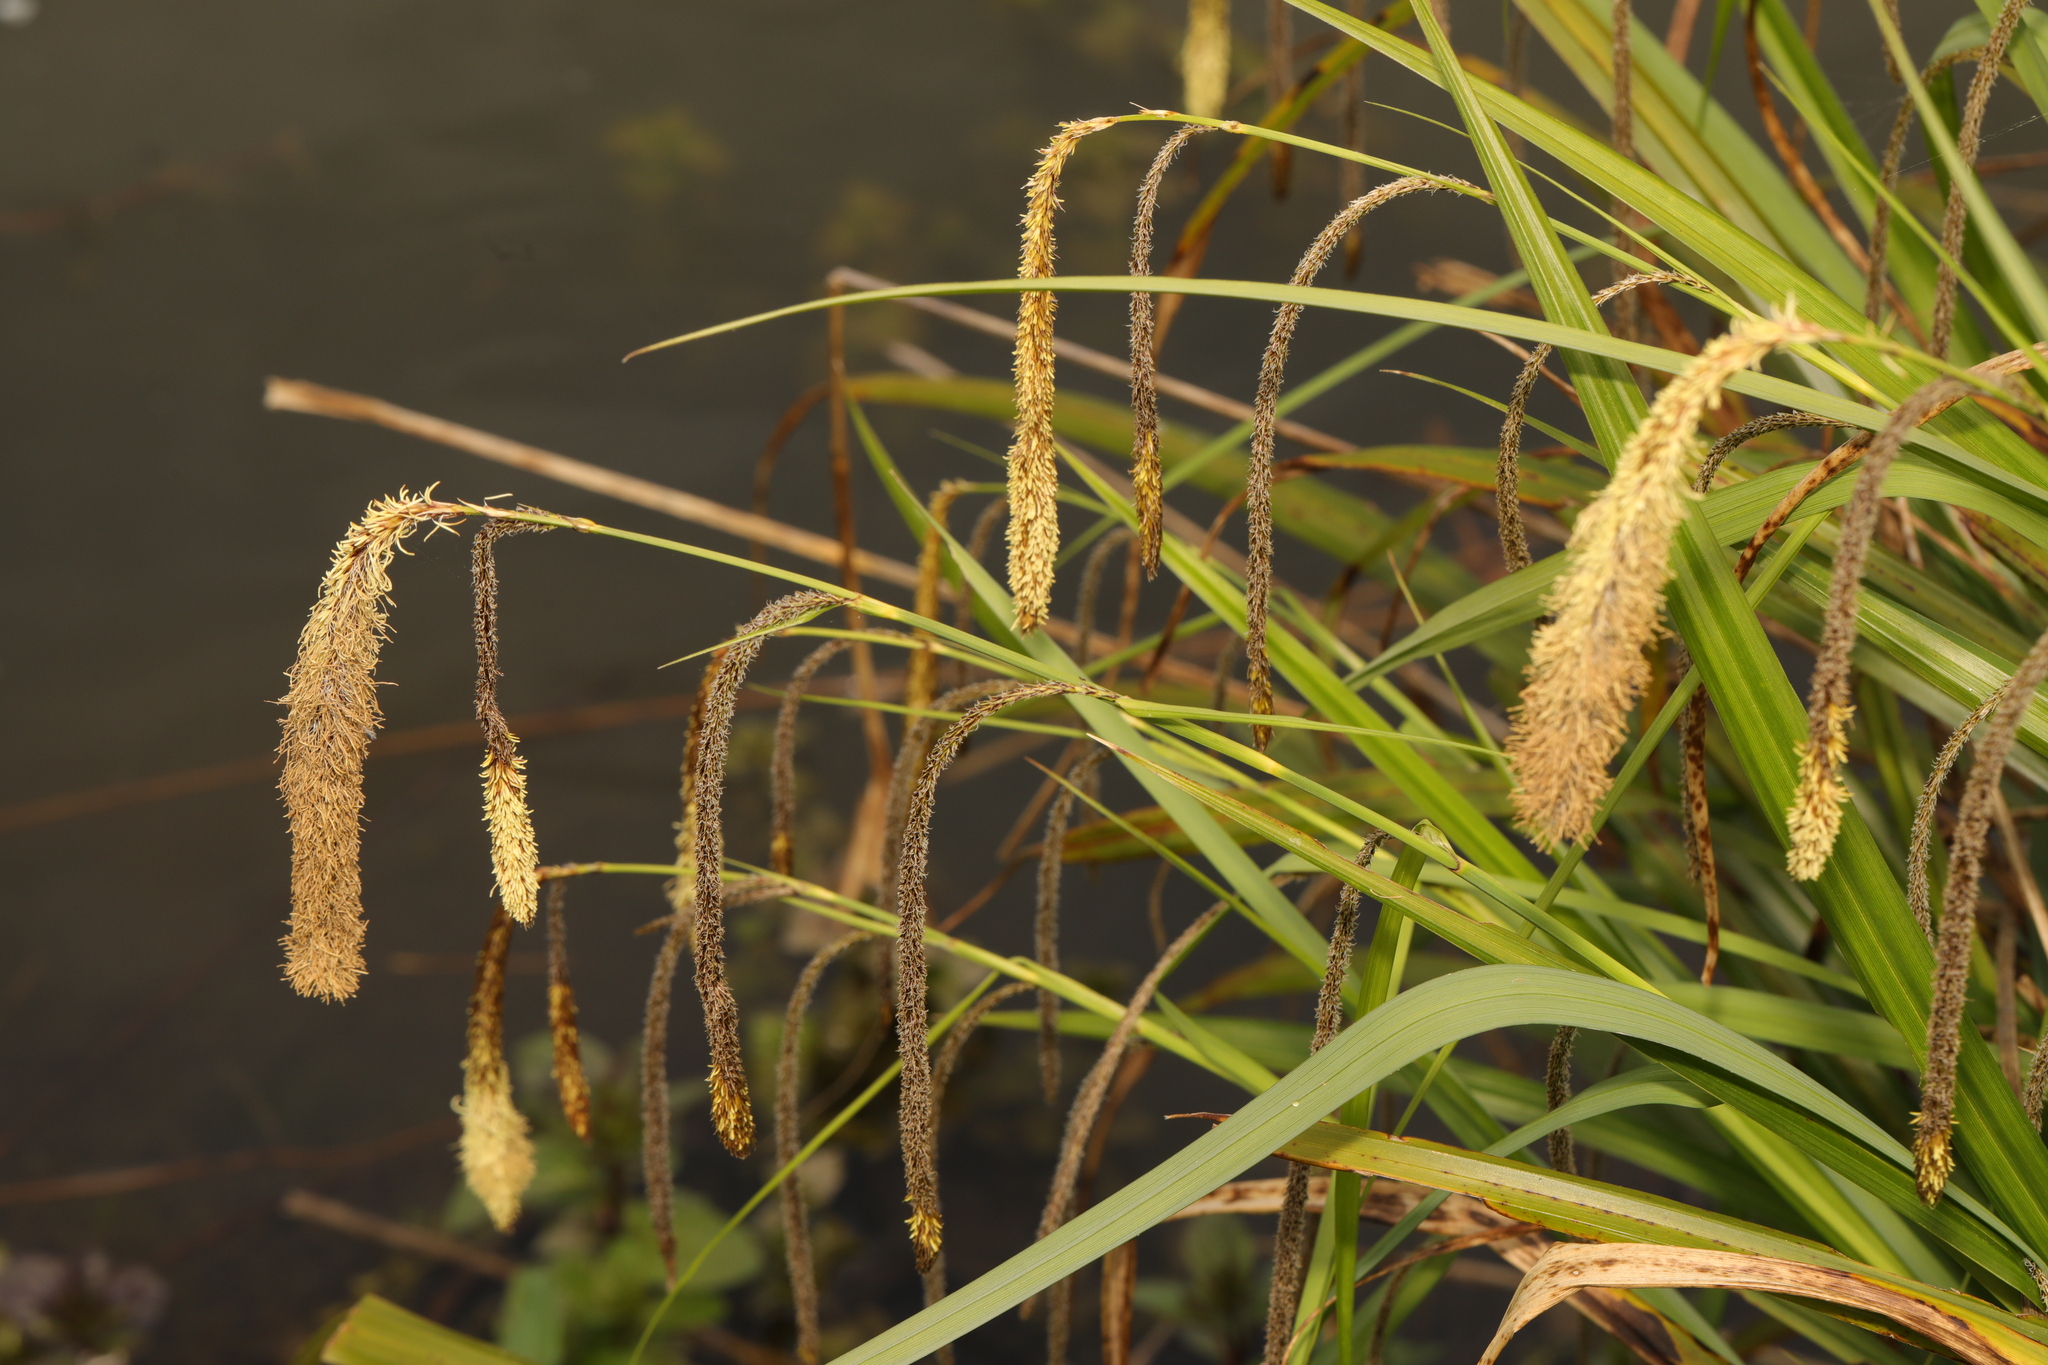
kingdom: Plantae
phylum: Tracheophyta
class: Liliopsida
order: Poales
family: Cyperaceae
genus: Carex
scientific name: Carex pendula
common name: Pendulous sedge
